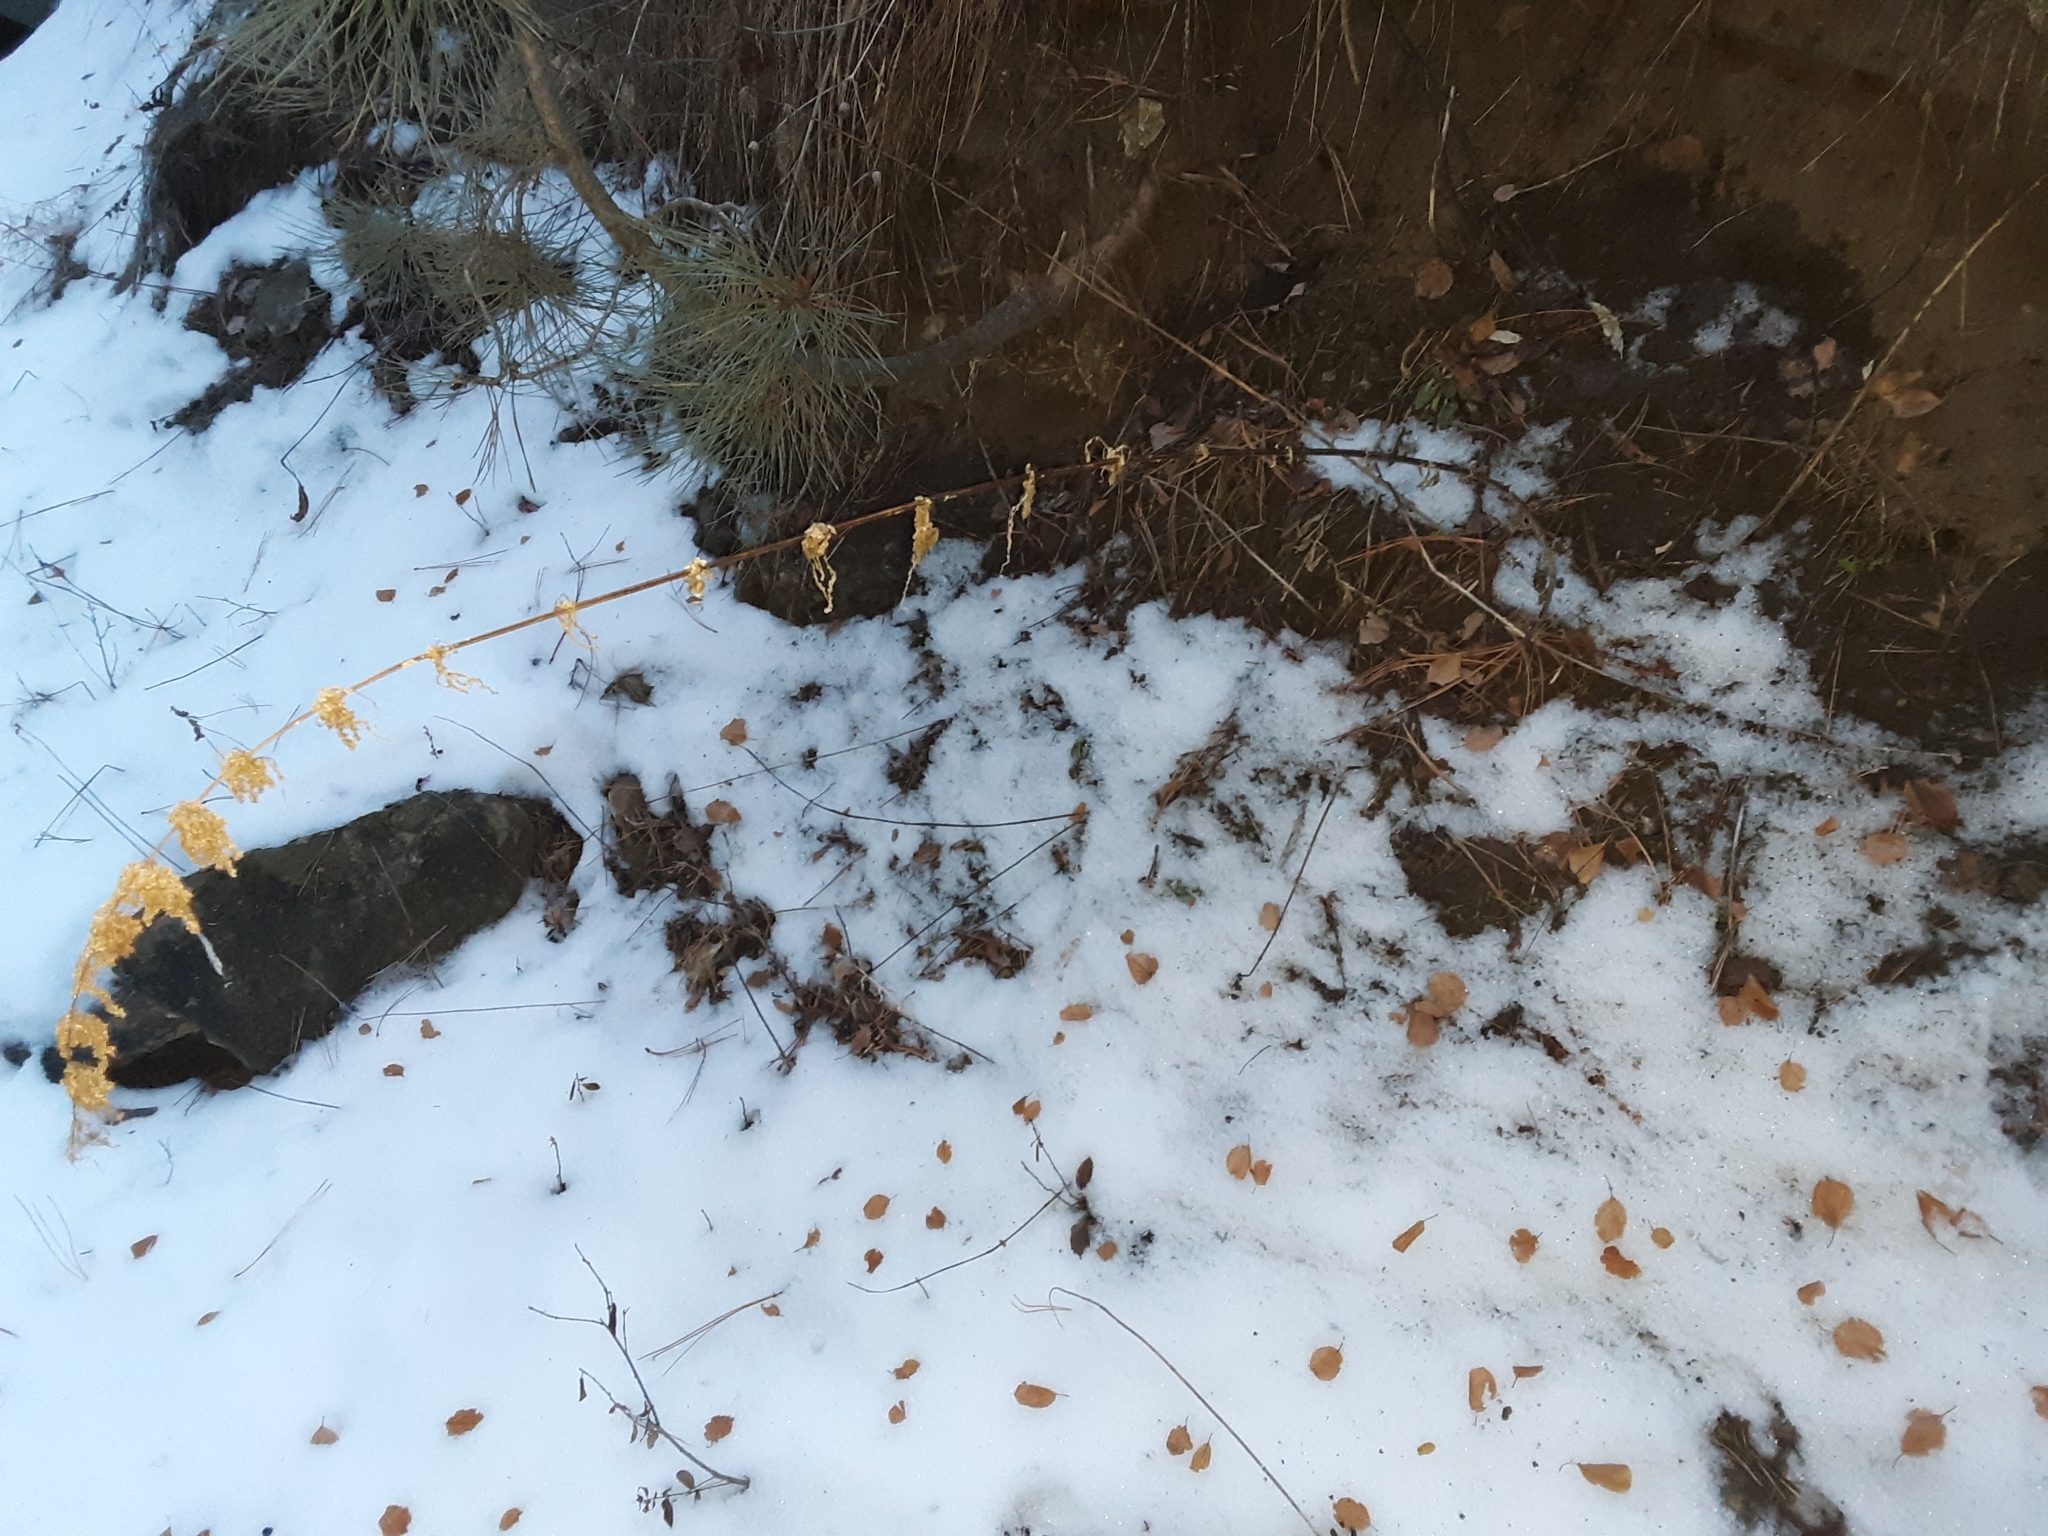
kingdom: Plantae
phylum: Tracheophyta
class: Magnoliopsida
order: Rosales
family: Urticaceae
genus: Urtica
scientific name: Urtica gracilis
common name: Slender stinging nettle
